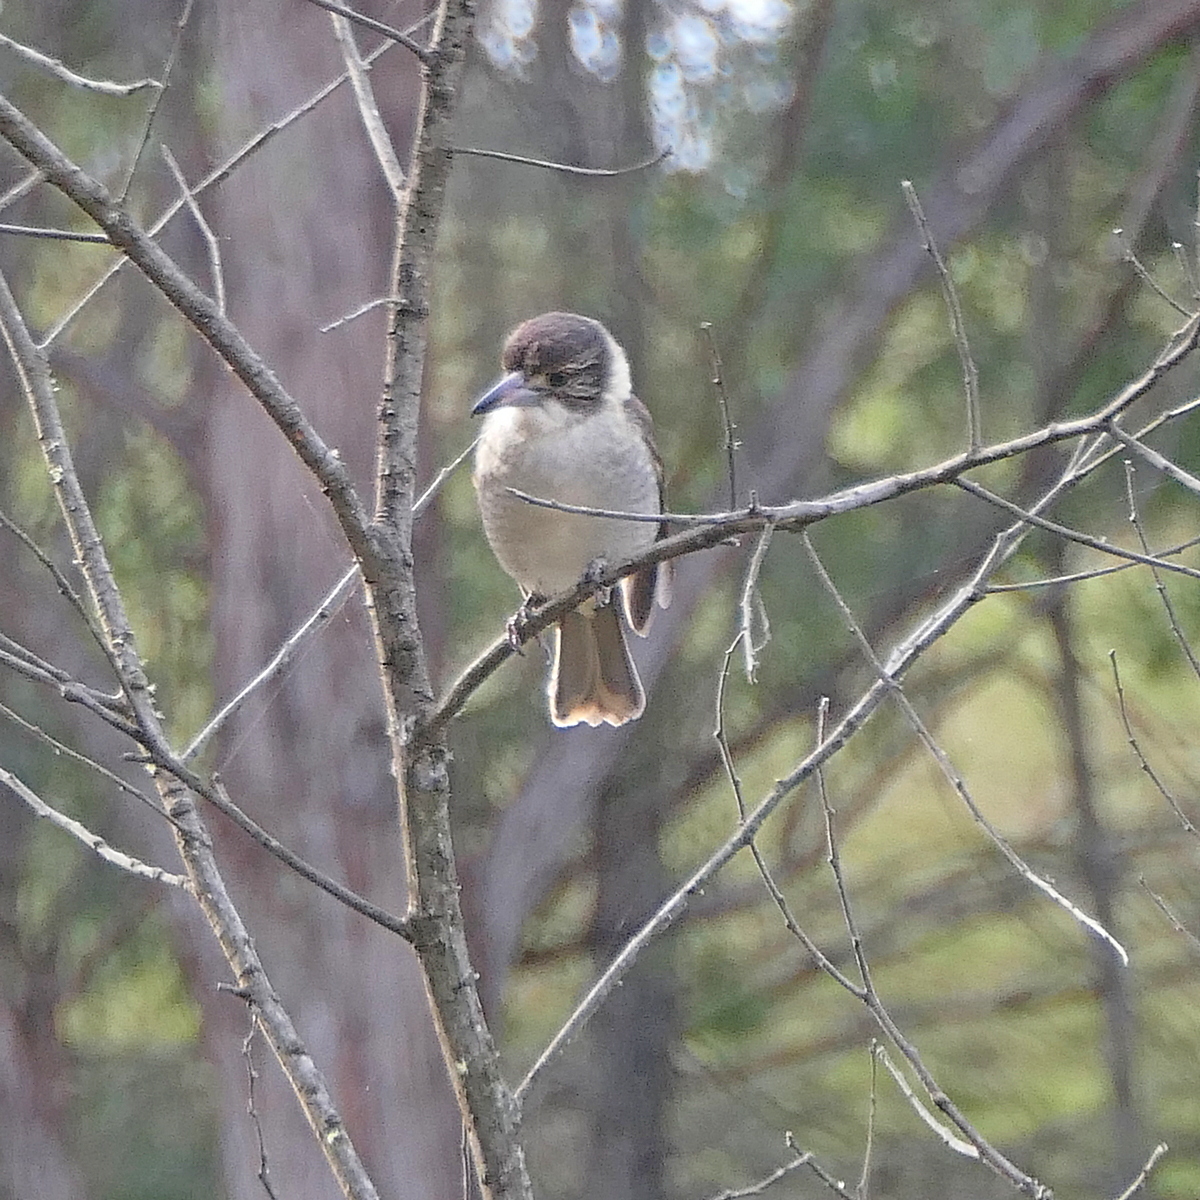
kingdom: Animalia
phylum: Chordata
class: Aves
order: Passeriformes
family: Cracticidae
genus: Cracticus
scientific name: Cracticus torquatus
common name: Grey butcherbird
